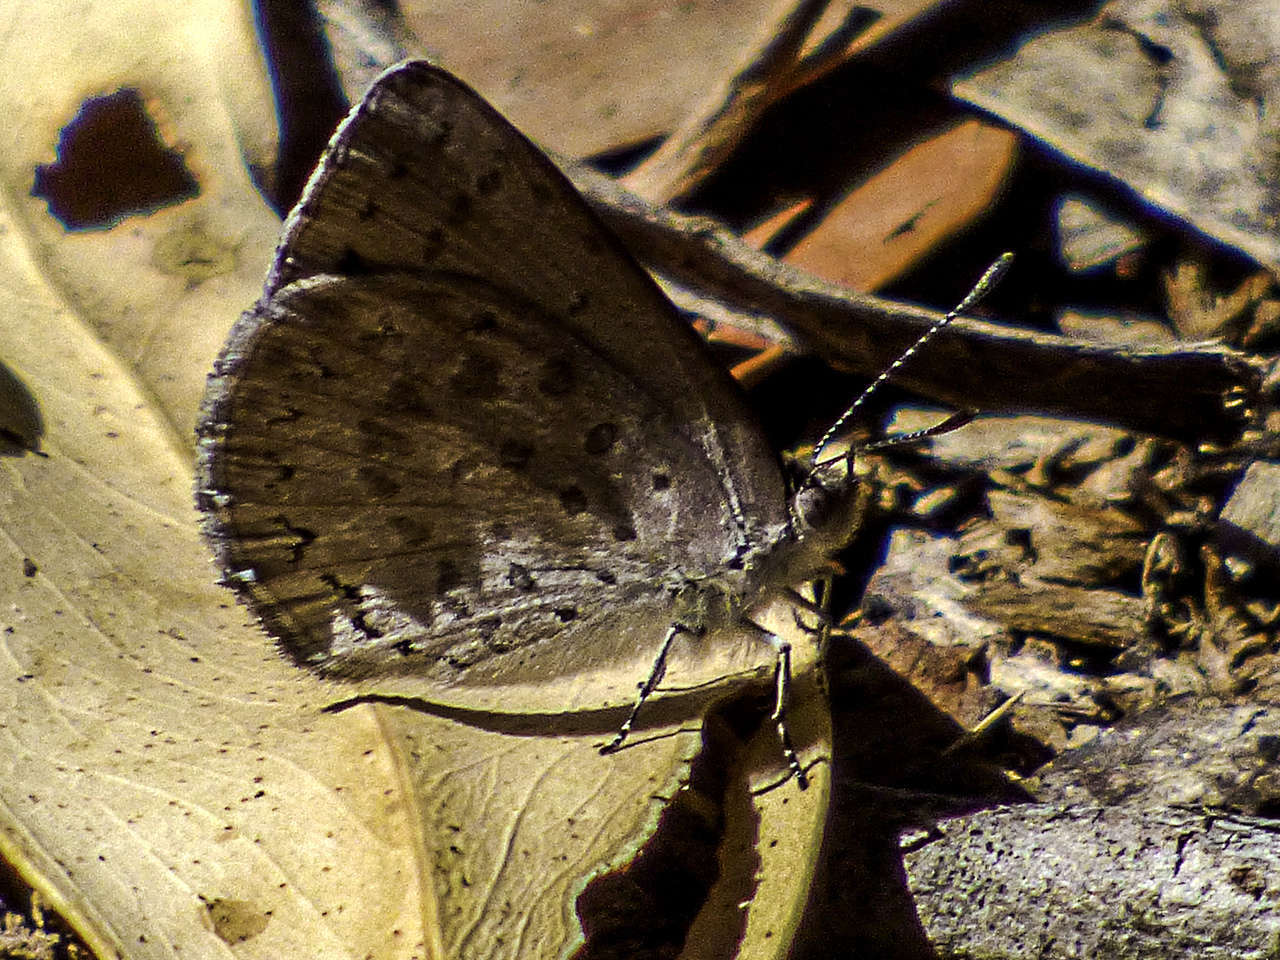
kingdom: Animalia
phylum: Arthropoda
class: Insecta
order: Lepidoptera
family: Lycaenidae
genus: Candalides
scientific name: Candalides
